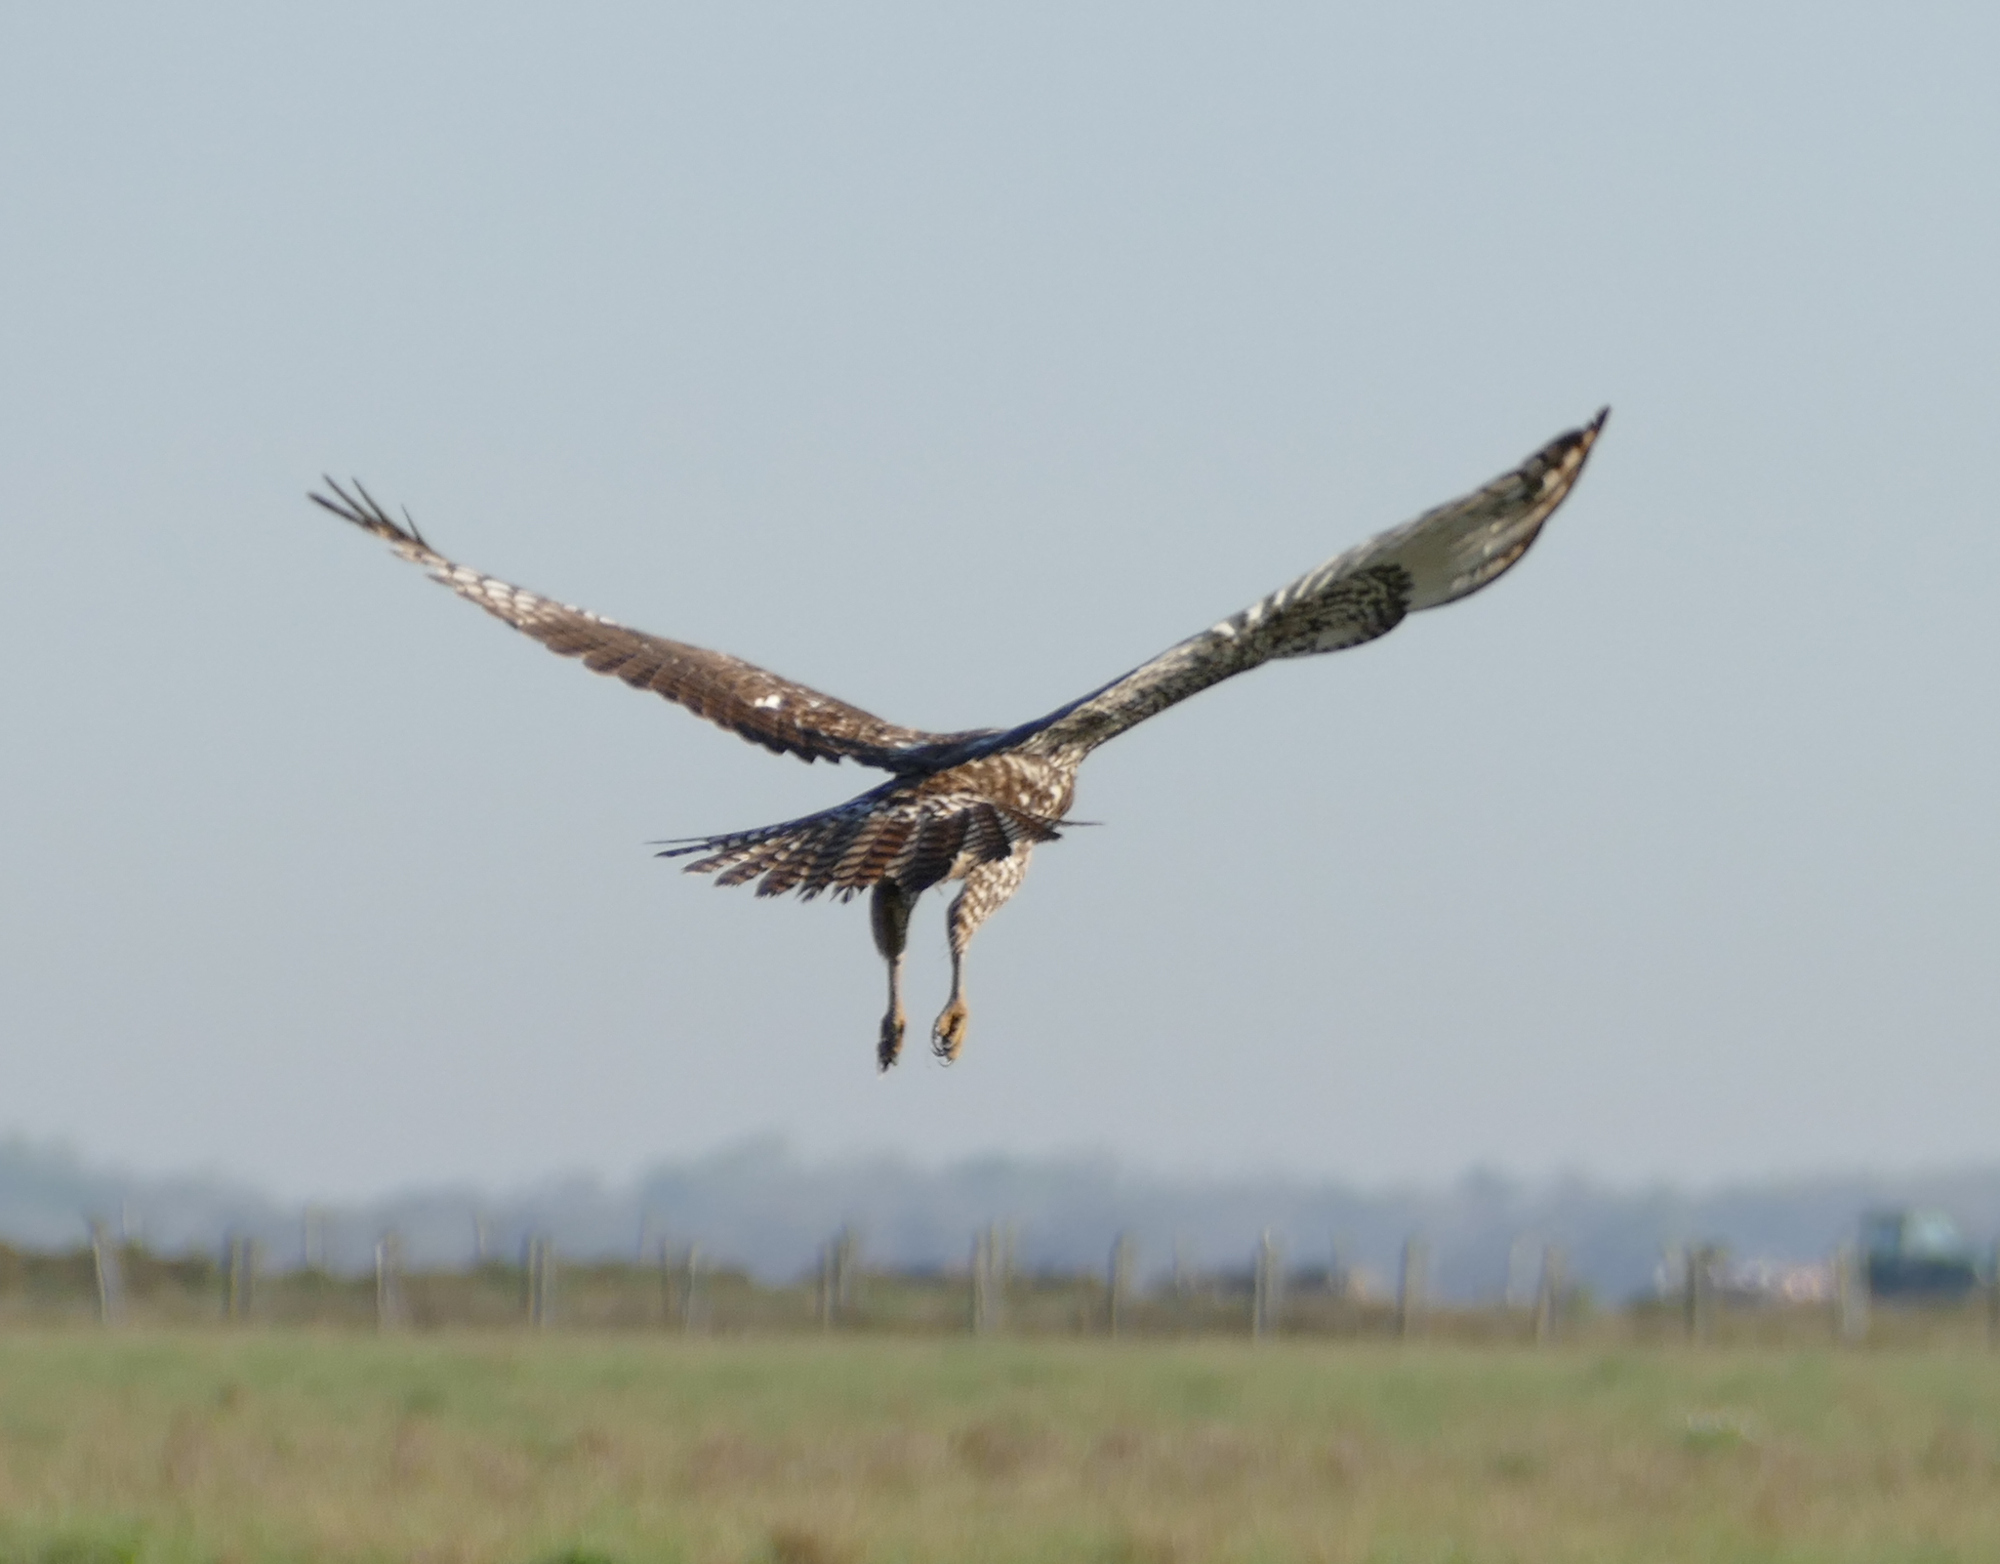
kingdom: Animalia
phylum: Chordata
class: Aves
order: Accipitriformes
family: Accipitridae
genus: Buteo
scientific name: Buteo jamaicensis
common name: Red-tailed hawk
